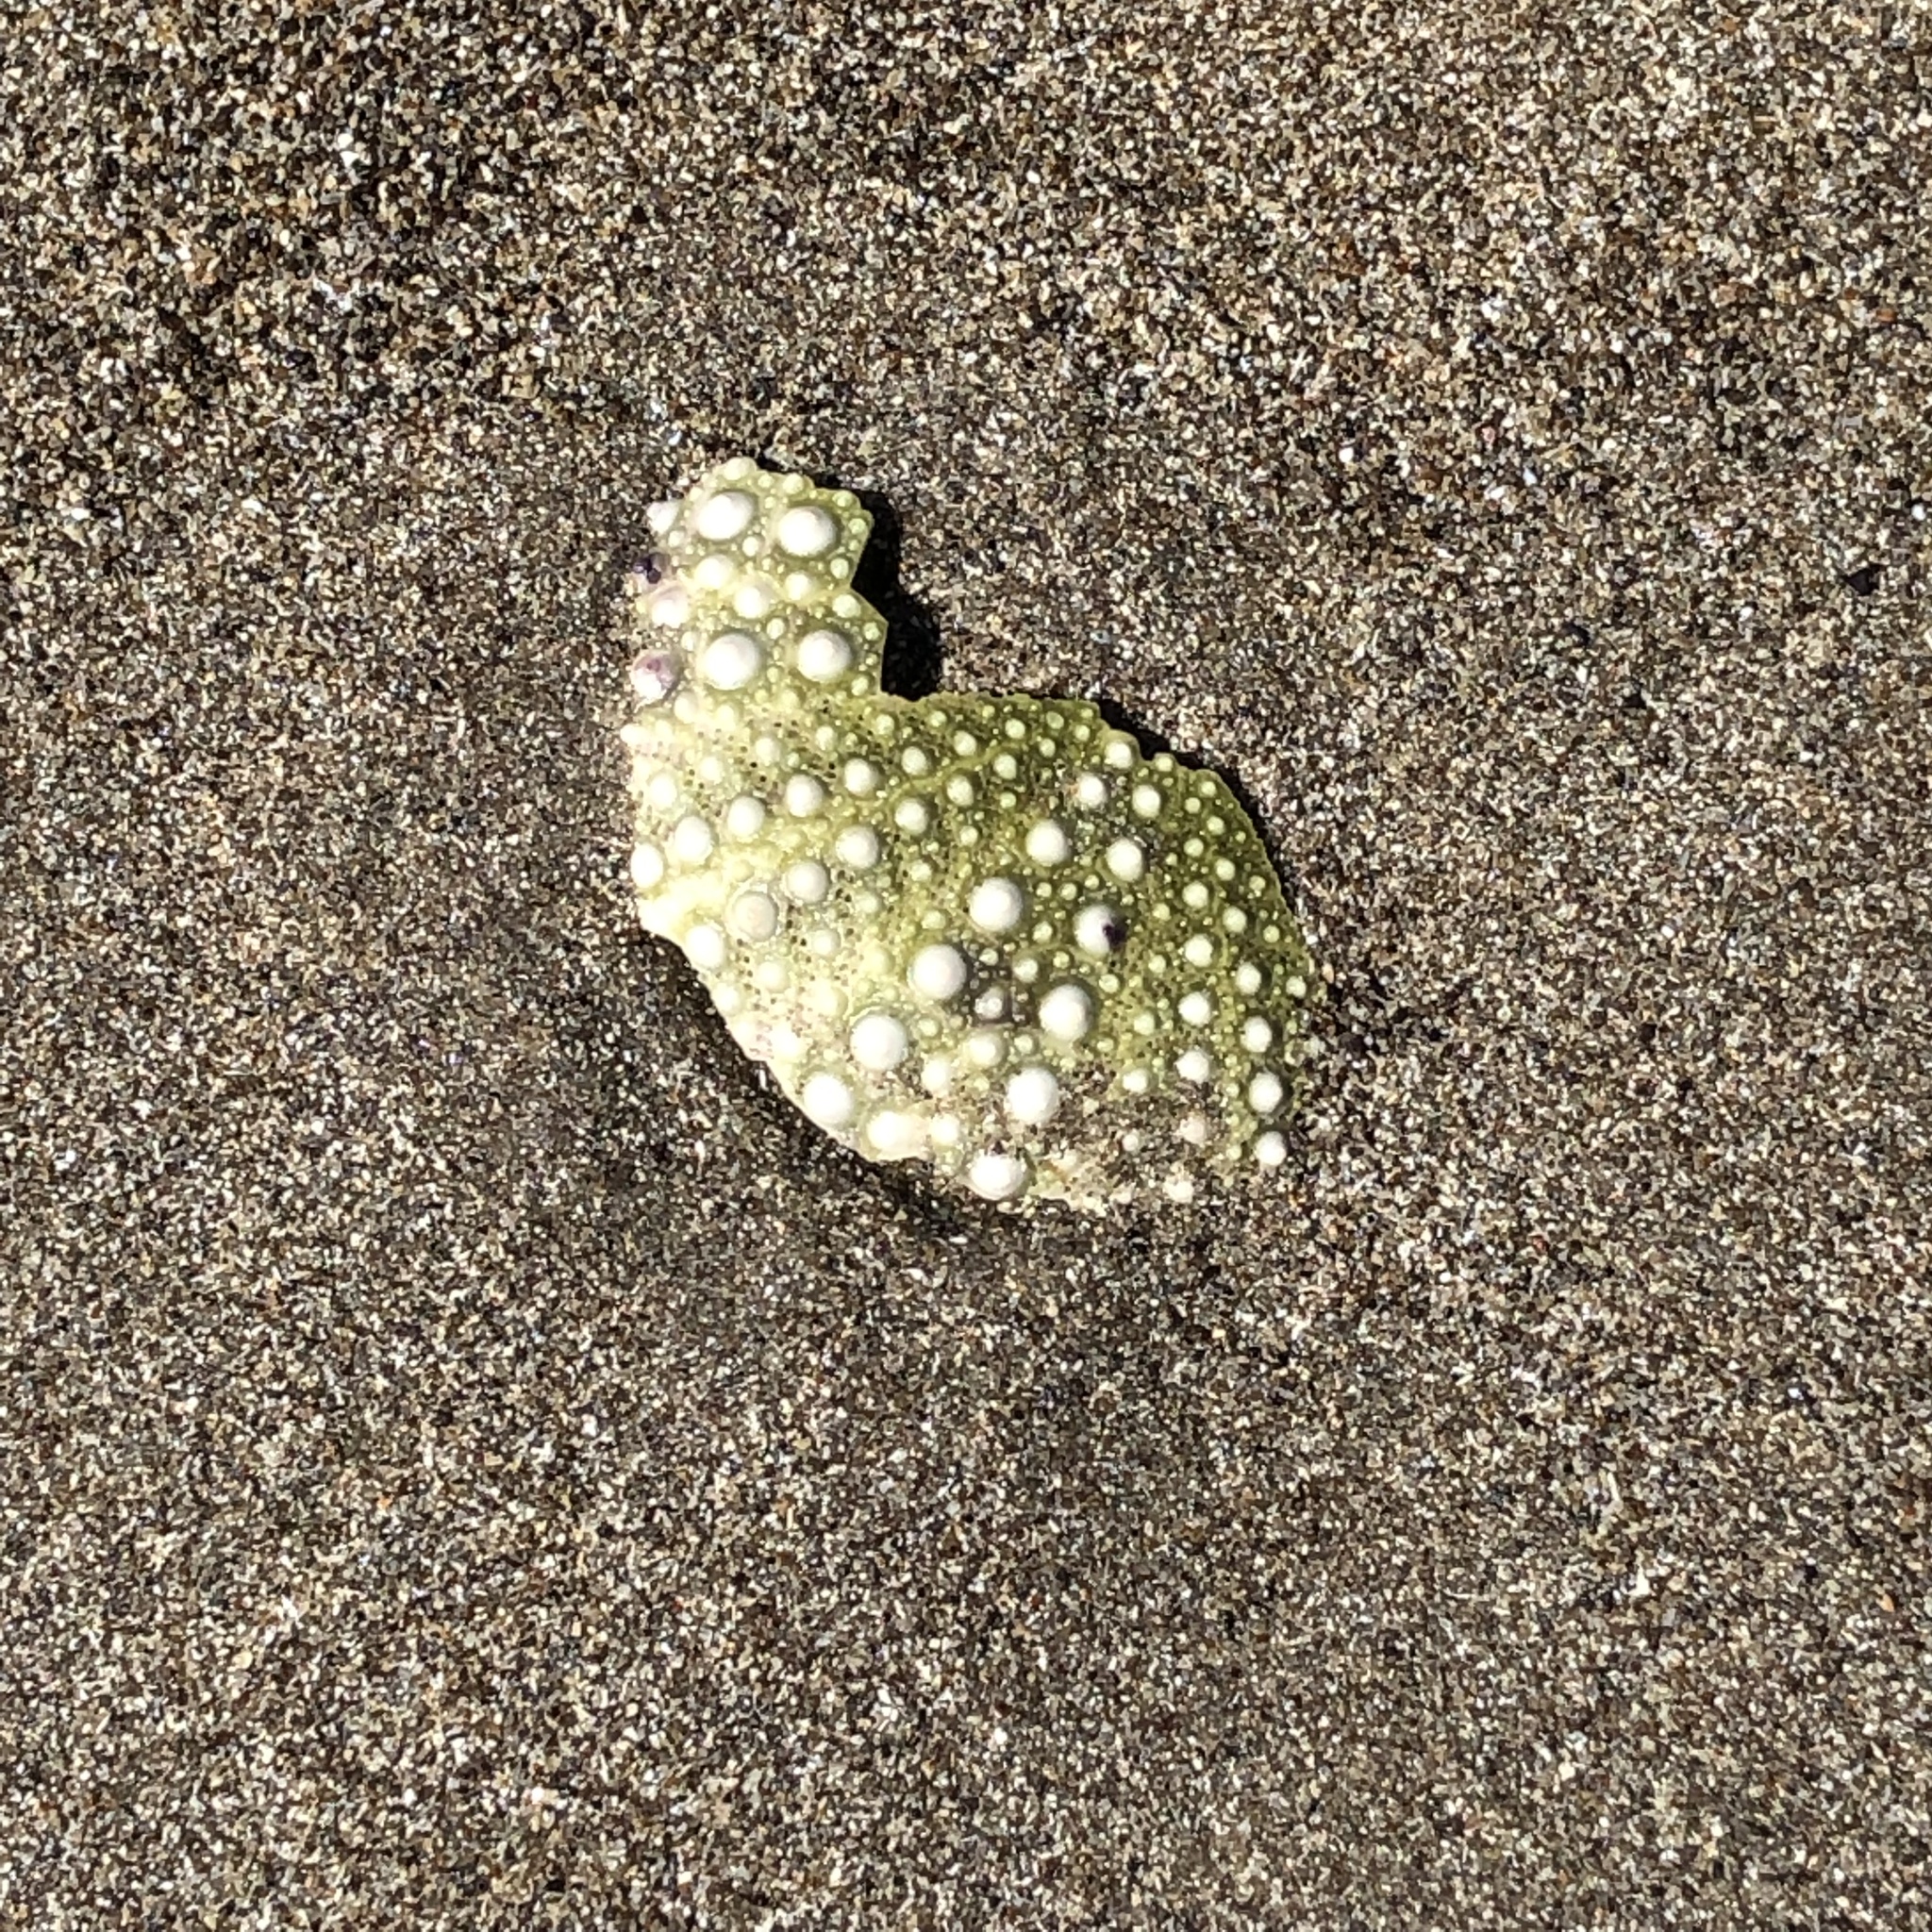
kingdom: Animalia
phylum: Echinodermata
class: Echinoidea
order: Camarodonta
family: Strongylocentrotidae
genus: Strongylocentrotus
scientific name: Strongylocentrotus purpuratus
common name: Purple sea urchin
